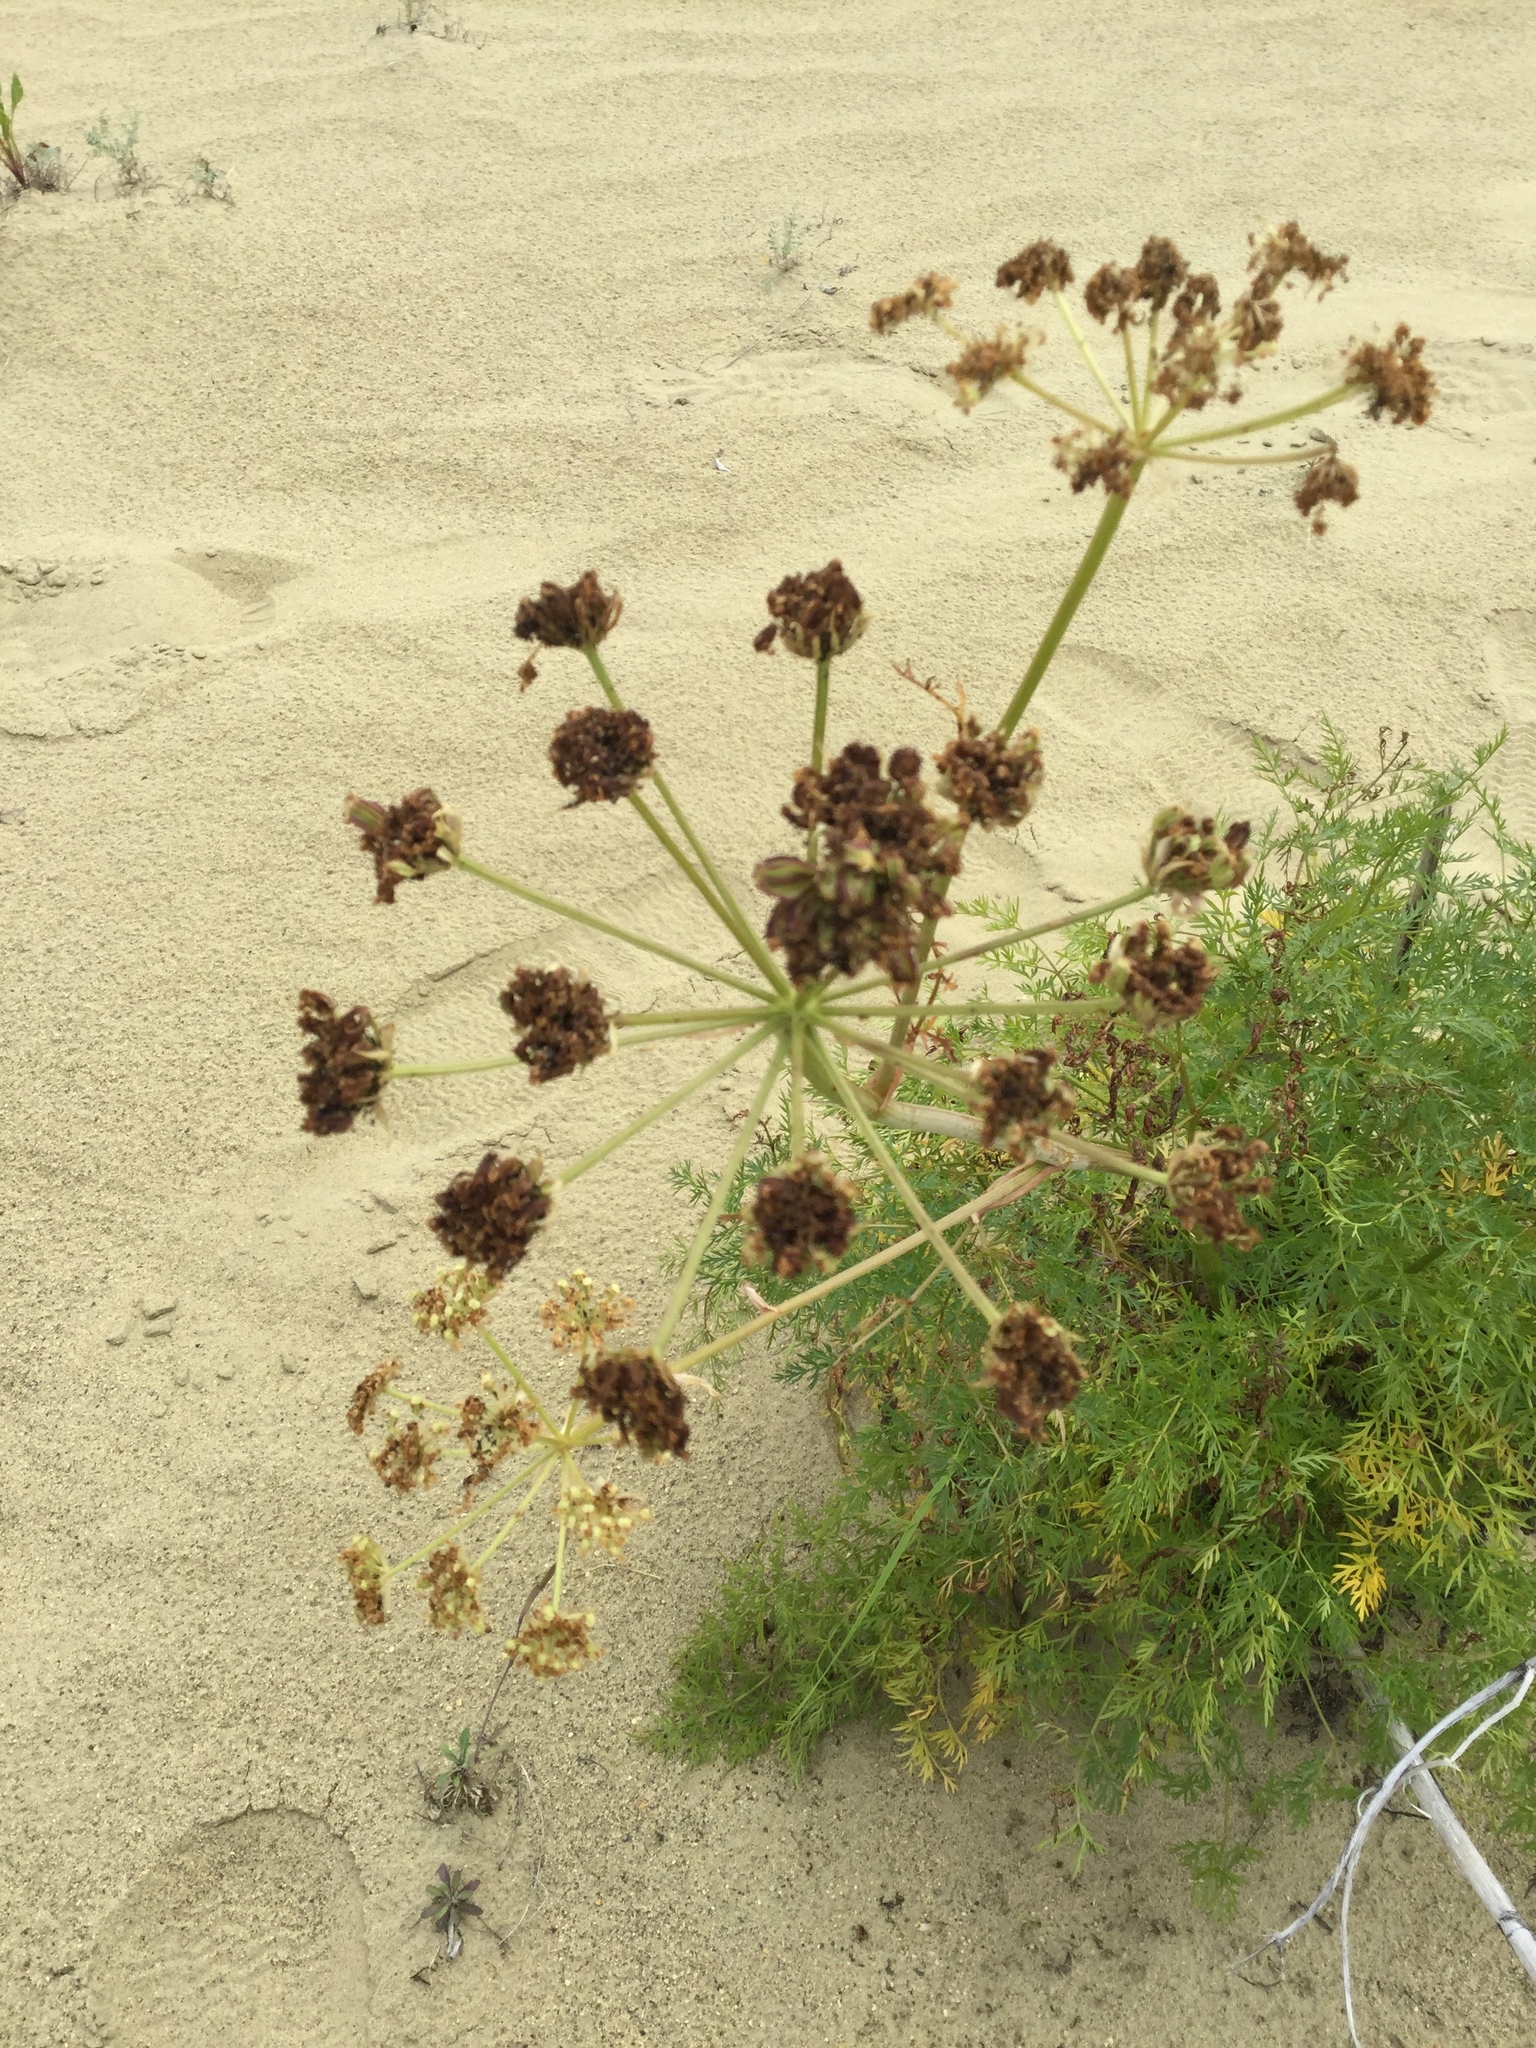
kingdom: Plantae
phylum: Tracheophyta
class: Magnoliopsida
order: Apiales
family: Apiaceae
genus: Cnidium
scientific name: Cnidium cnidiifolium
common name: Northern hemlock-parsley
